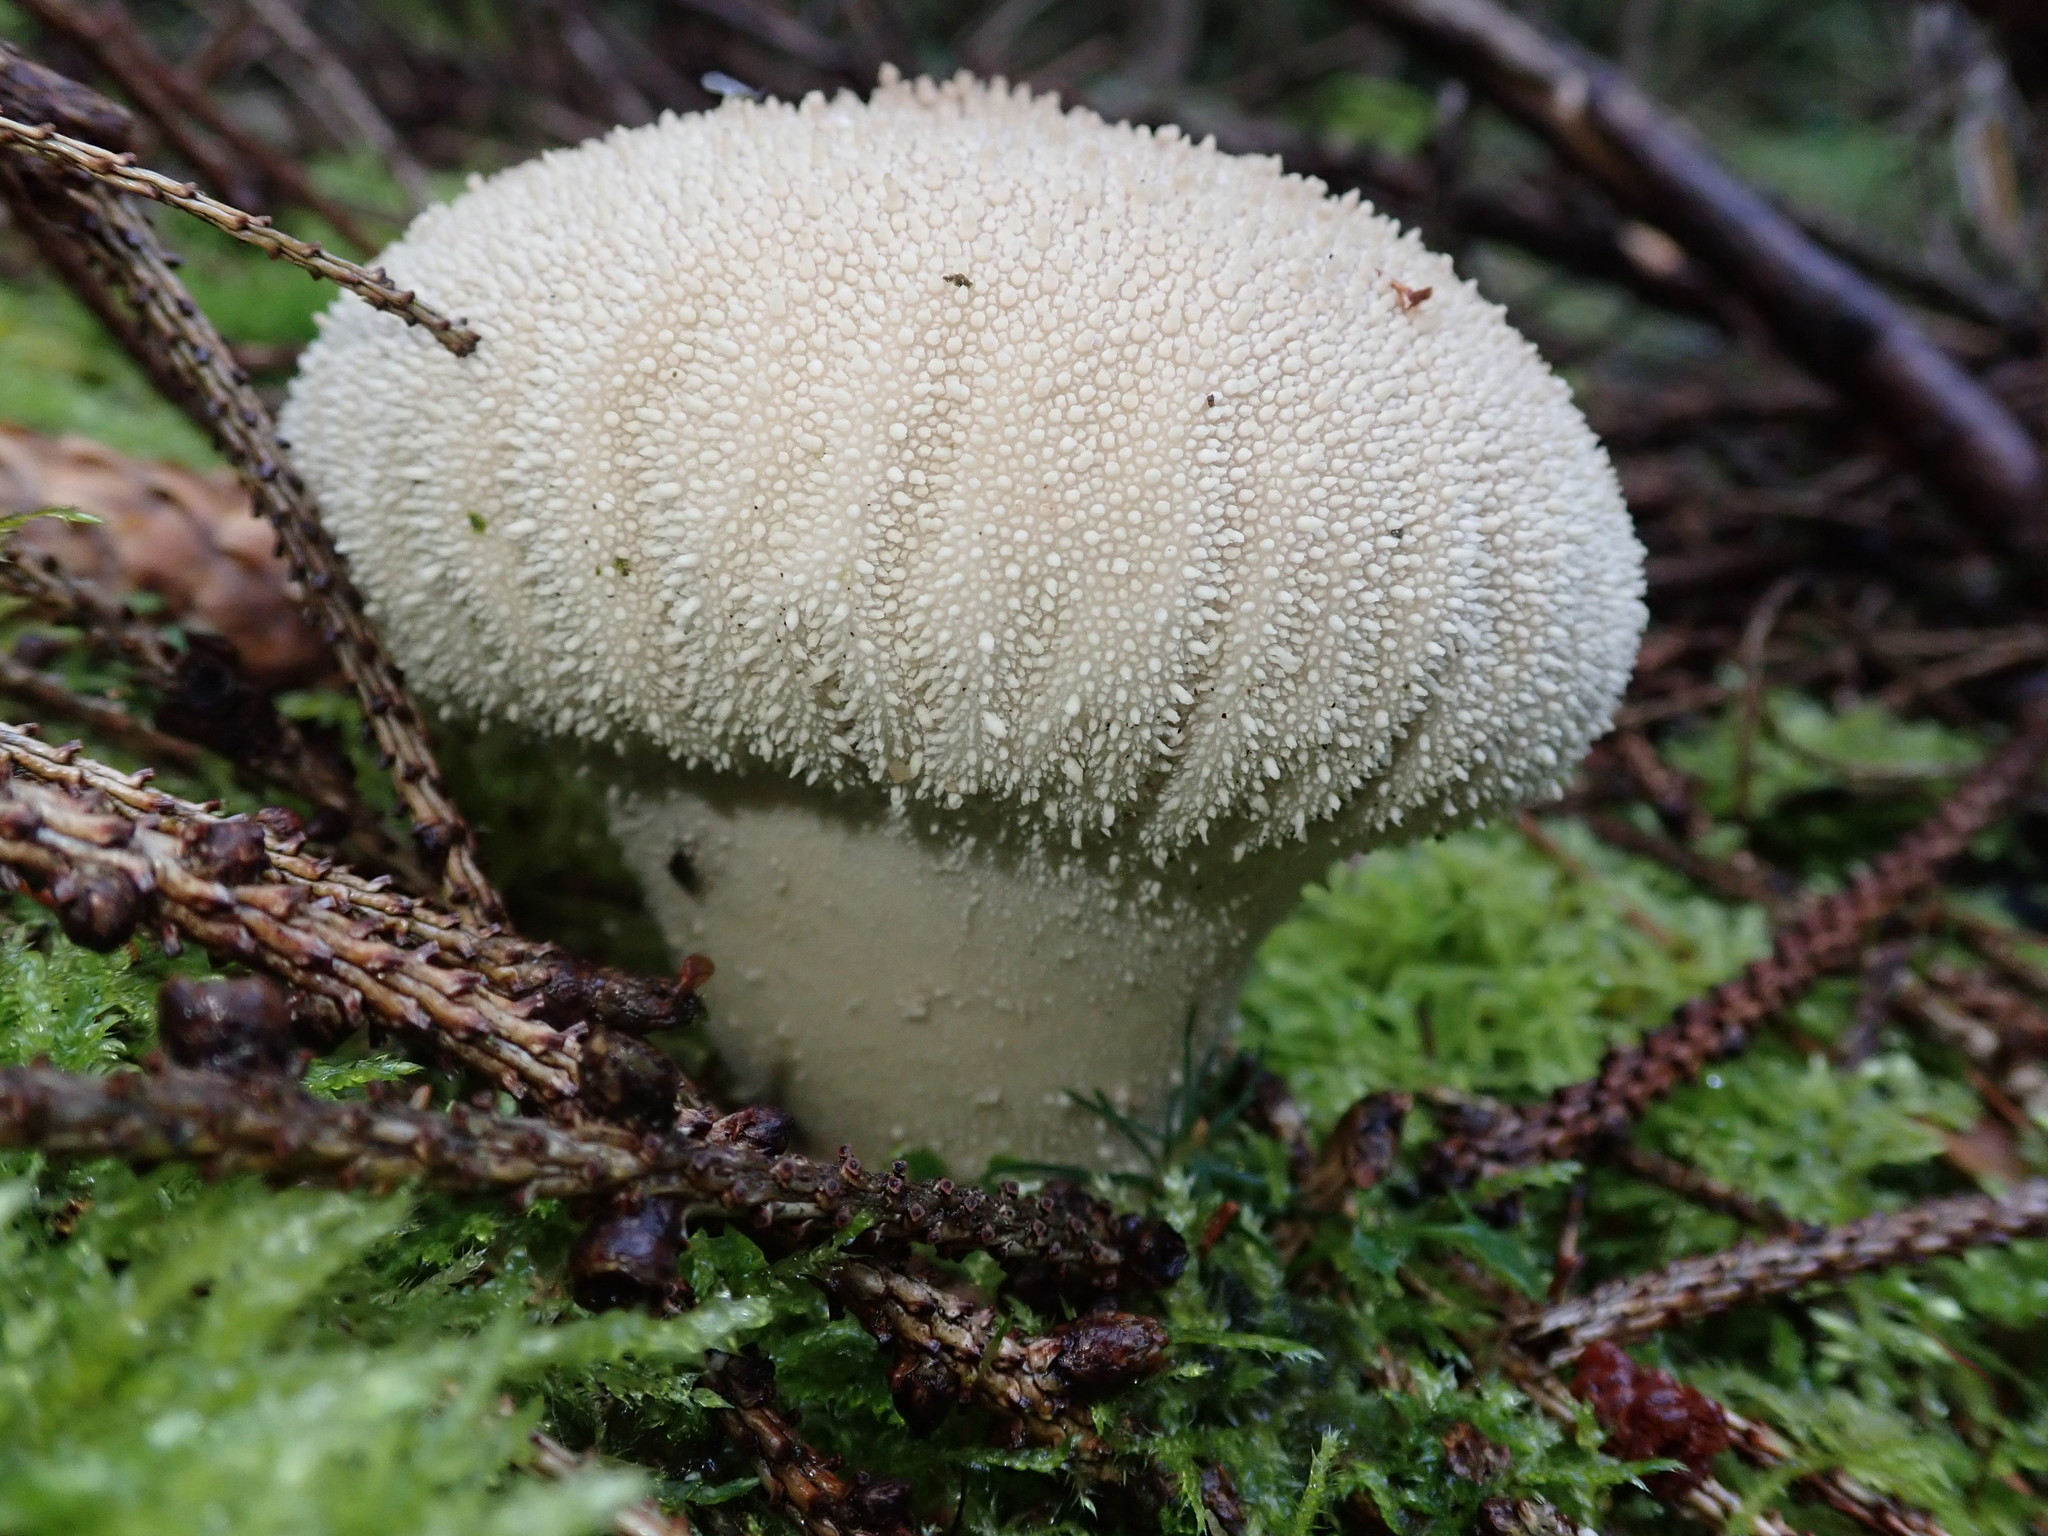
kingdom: Fungi
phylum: Basidiomycota
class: Agaricomycetes
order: Agaricales
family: Lycoperdaceae
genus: Lycoperdon
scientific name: Lycoperdon perlatum
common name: Common puffball
